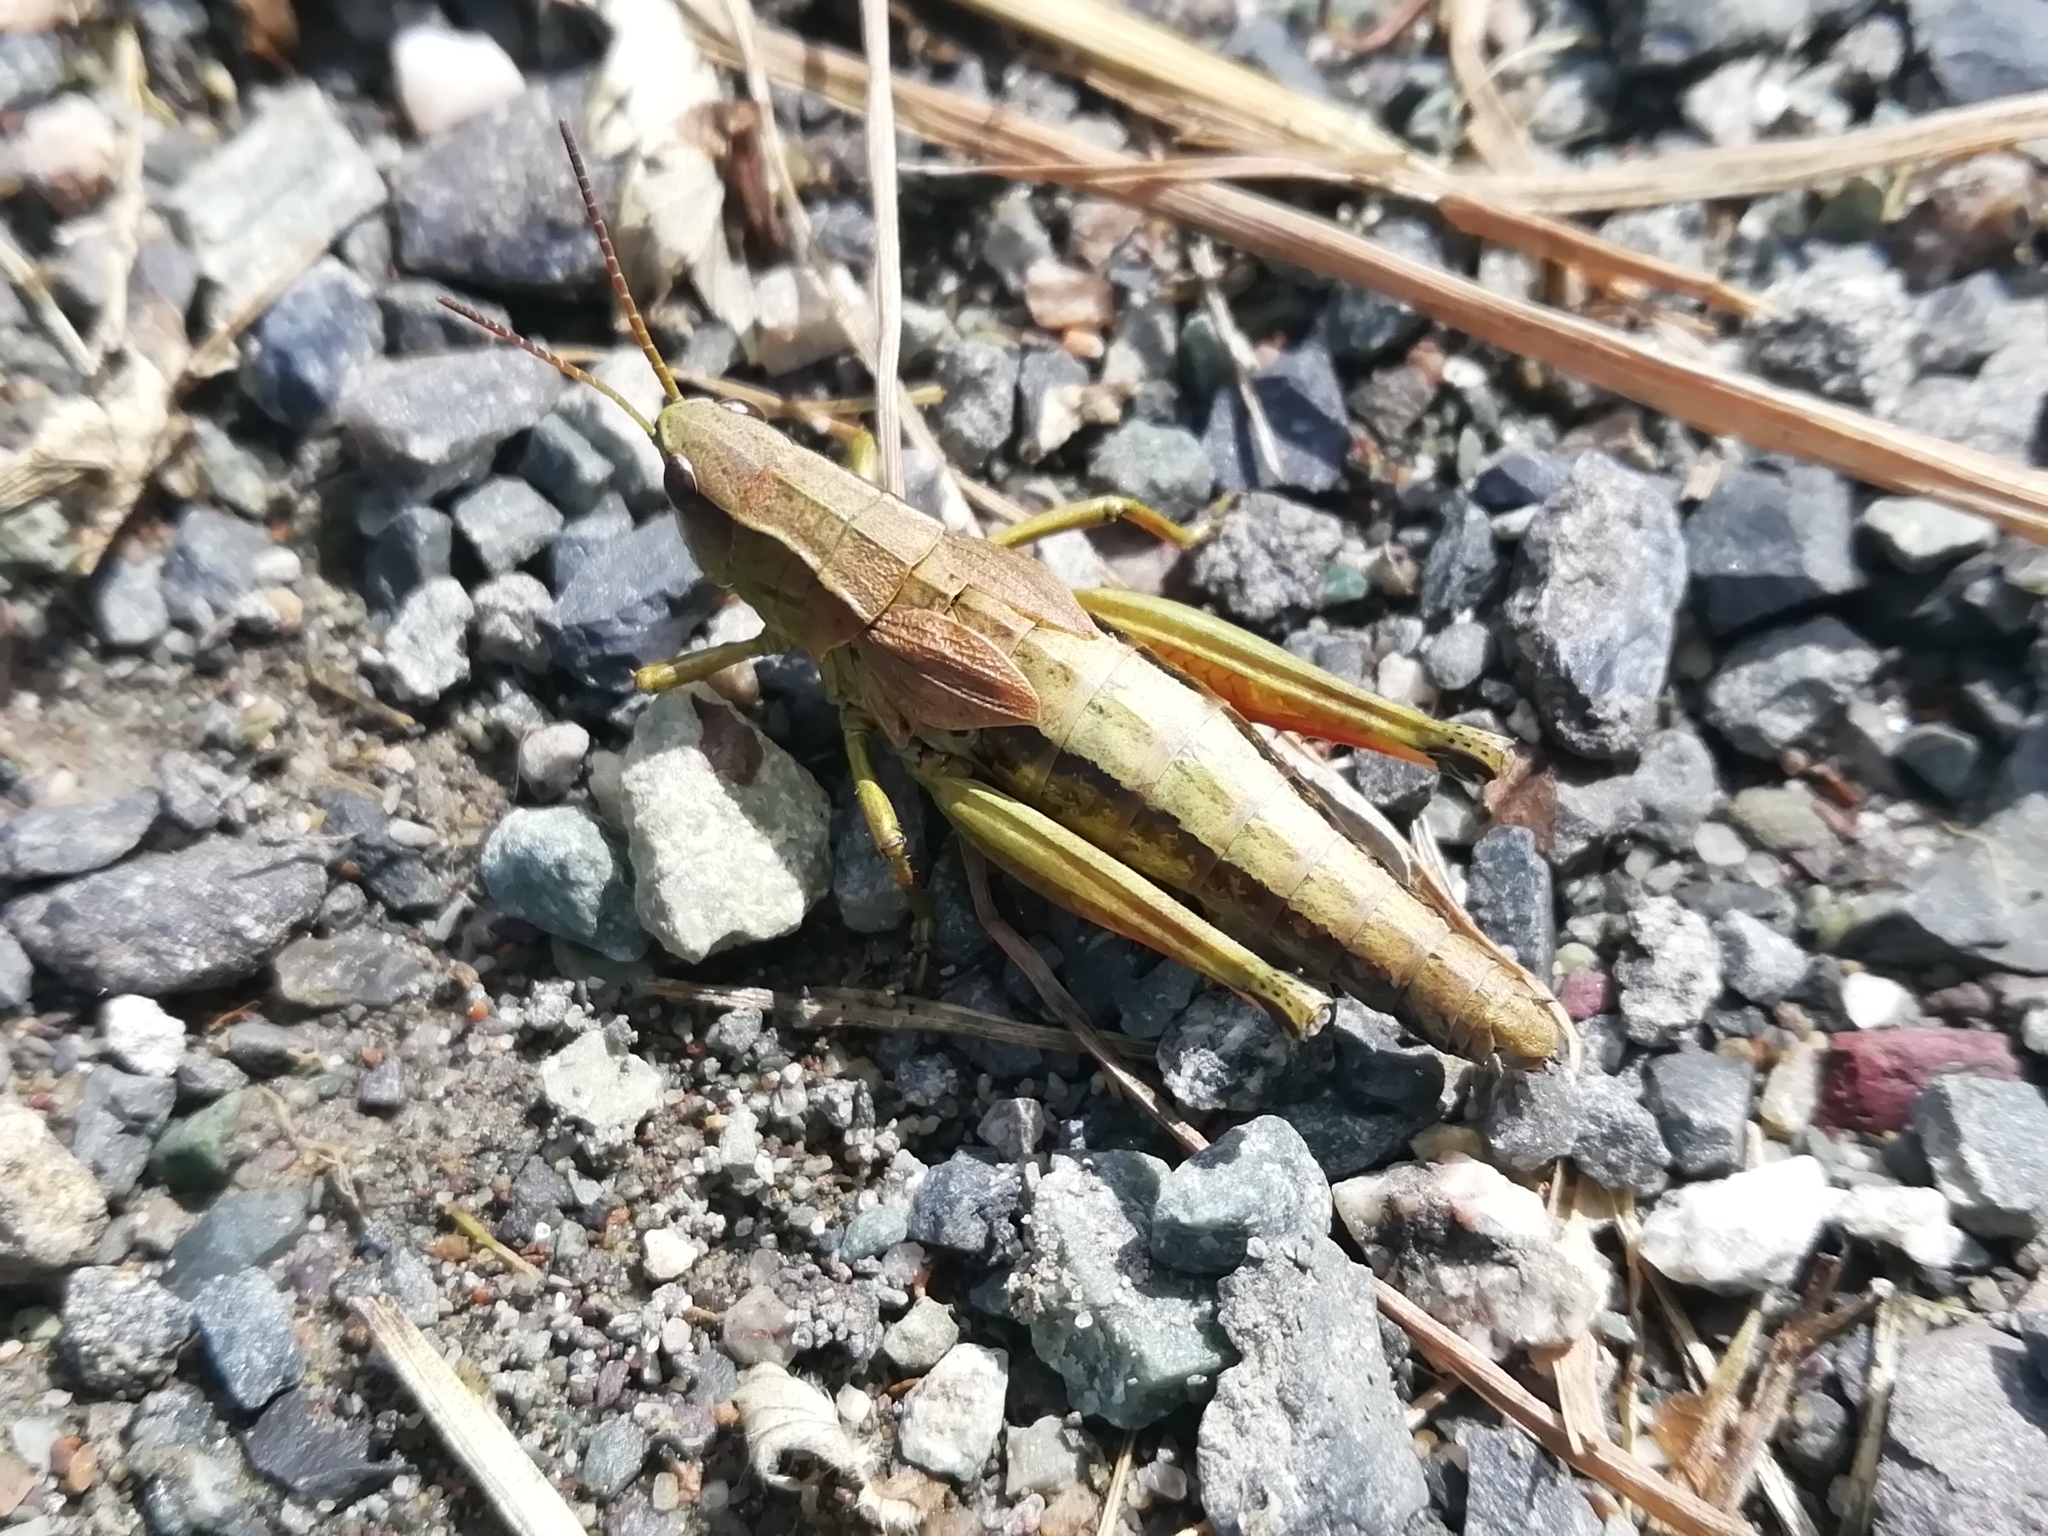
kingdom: Animalia
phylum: Arthropoda
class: Insecta
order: Orthoptera
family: Acrididae
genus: Podismopsis
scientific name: Podismopsis poppiusi
